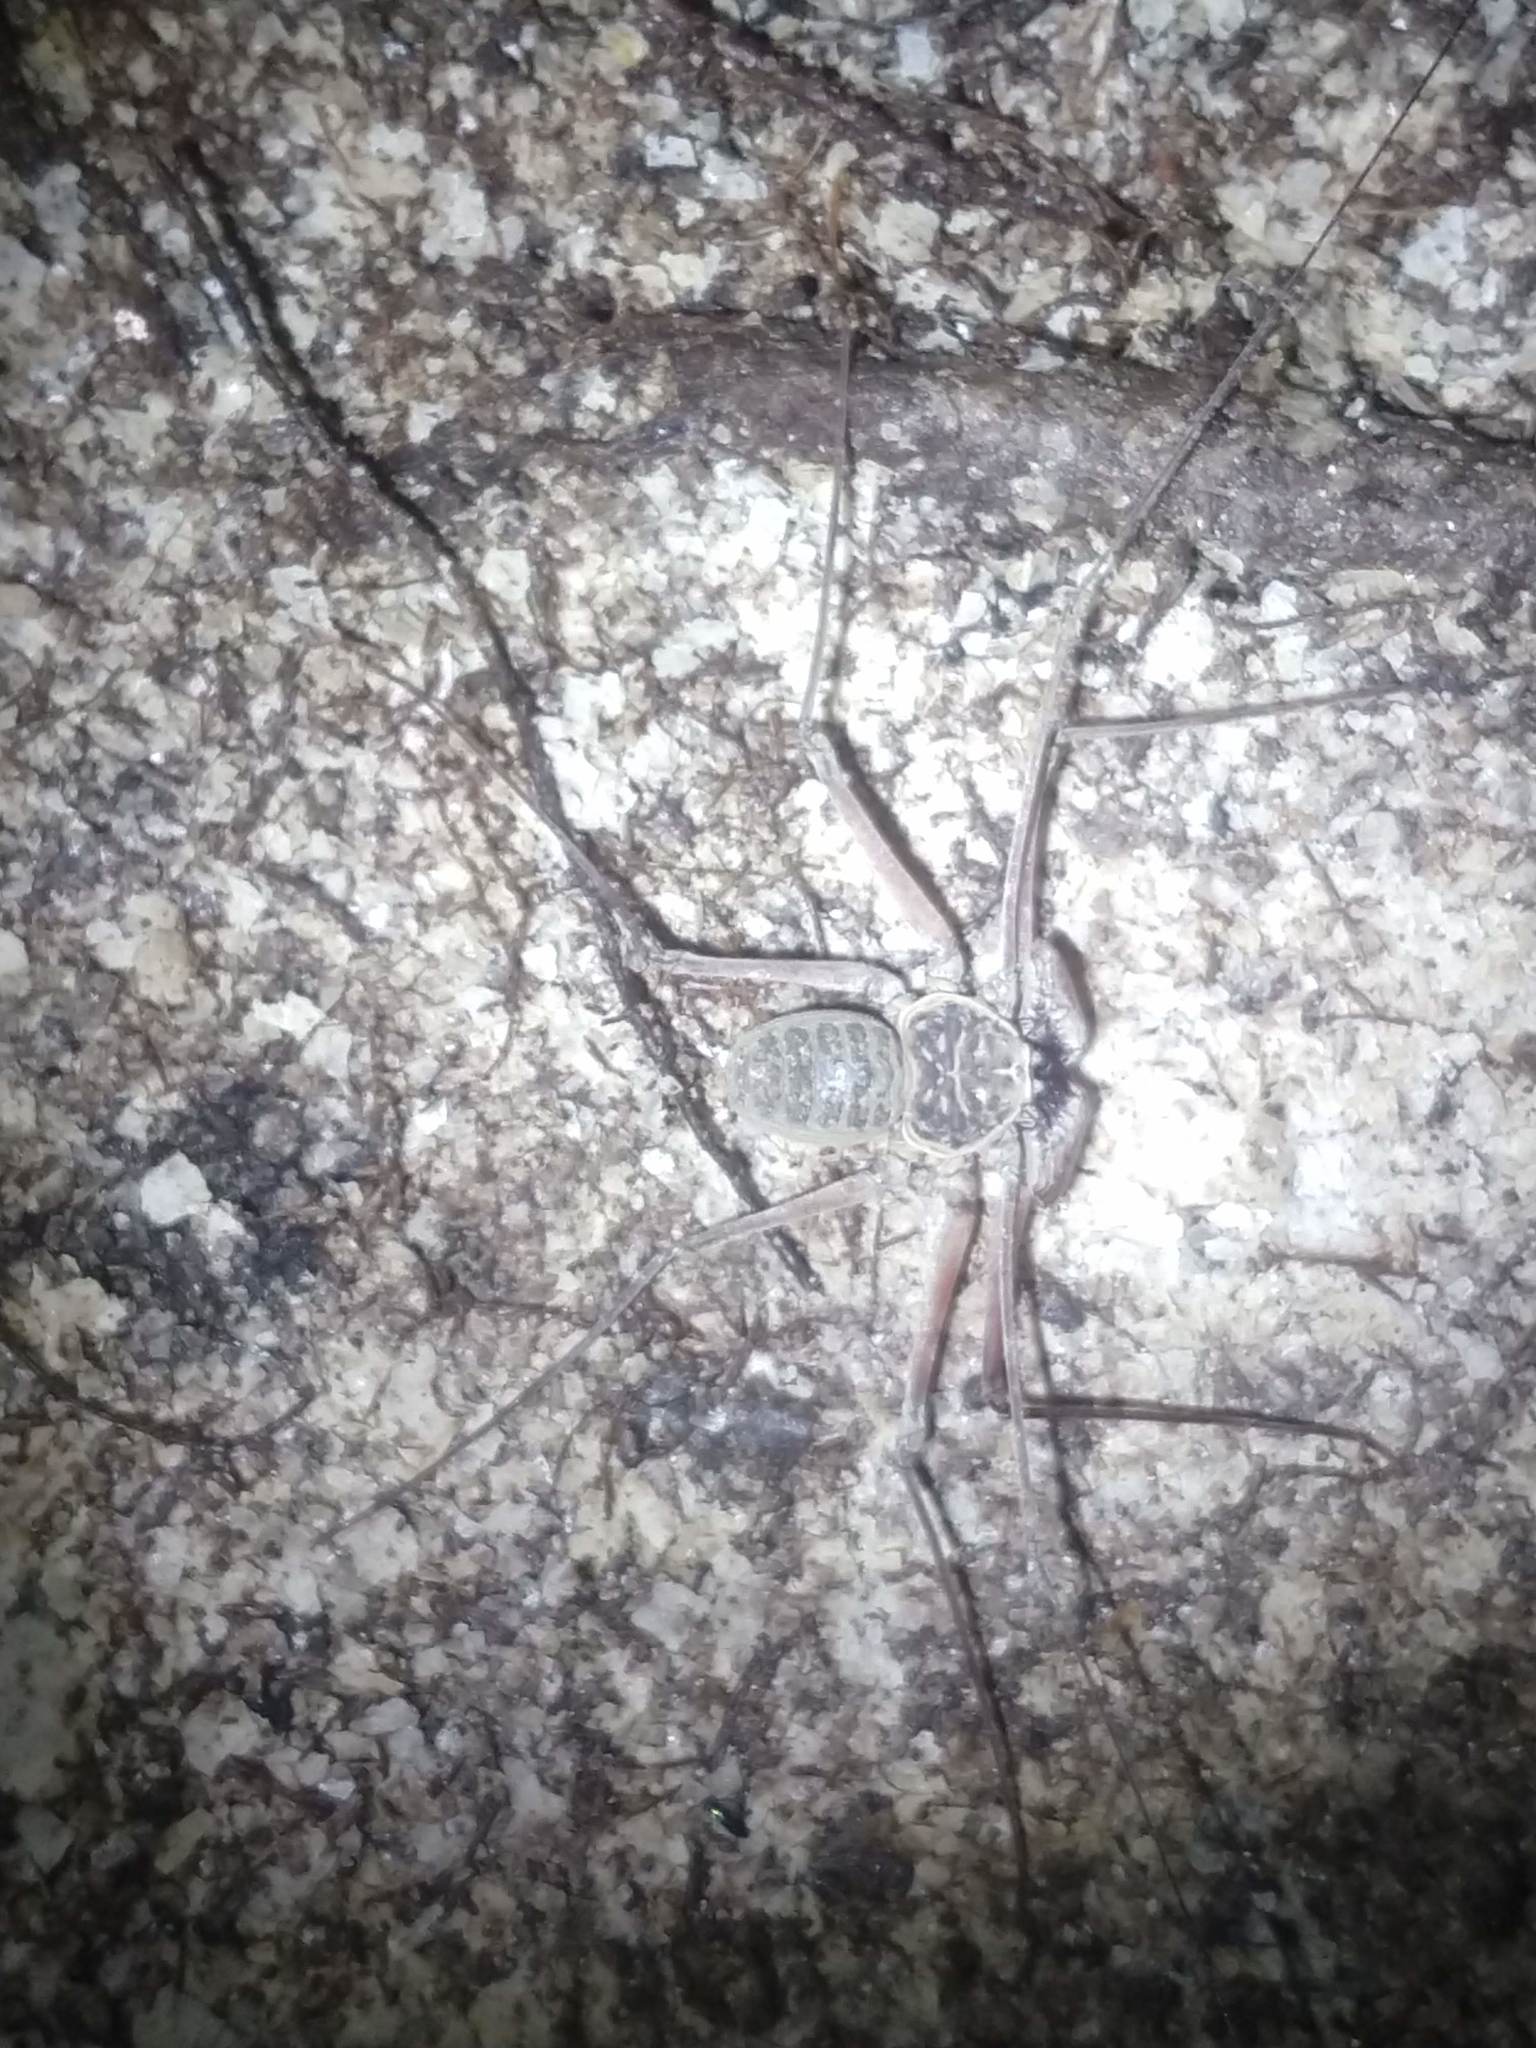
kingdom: Animalia
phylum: Arthropoda
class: Arachnida
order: Amblypygi
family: Phrynidae
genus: Paraphrynus
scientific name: Paraphrynus raptator
